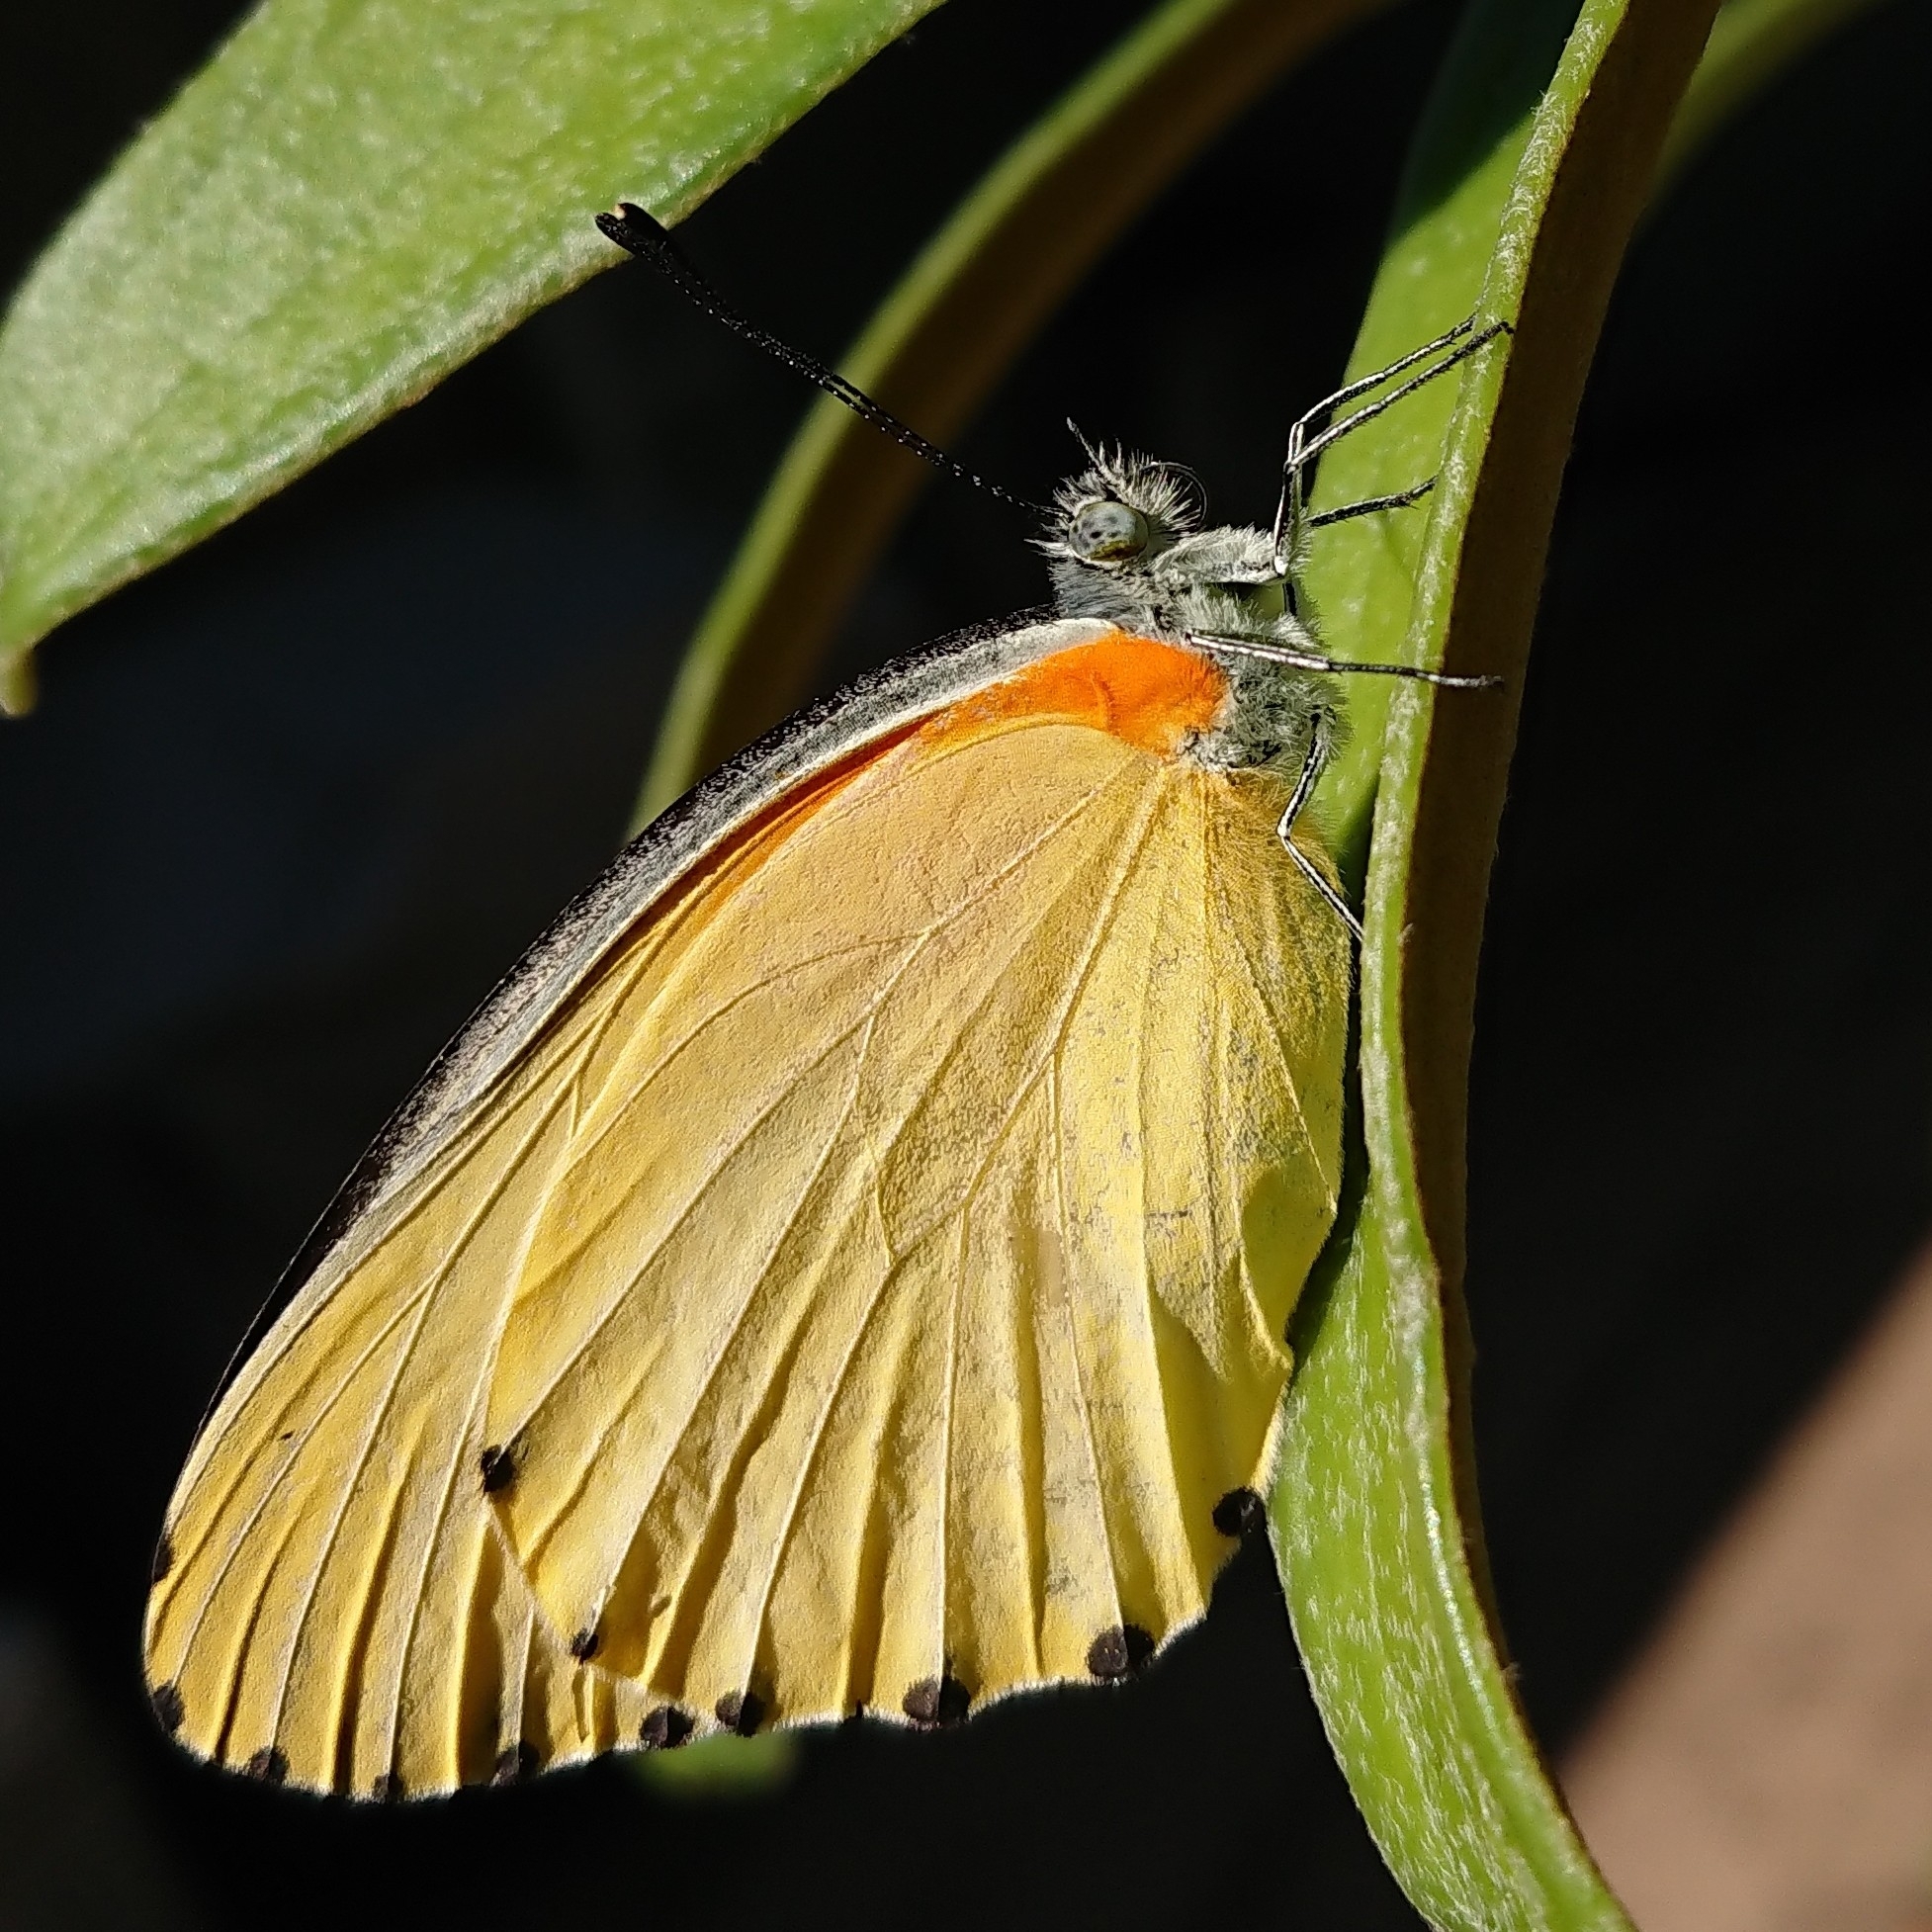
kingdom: Animalia
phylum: Arthropoda
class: Insecta
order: Lepidoptera
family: Pieridae
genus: Mylothris
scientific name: Mylothris agathina
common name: Eastern dotted border
